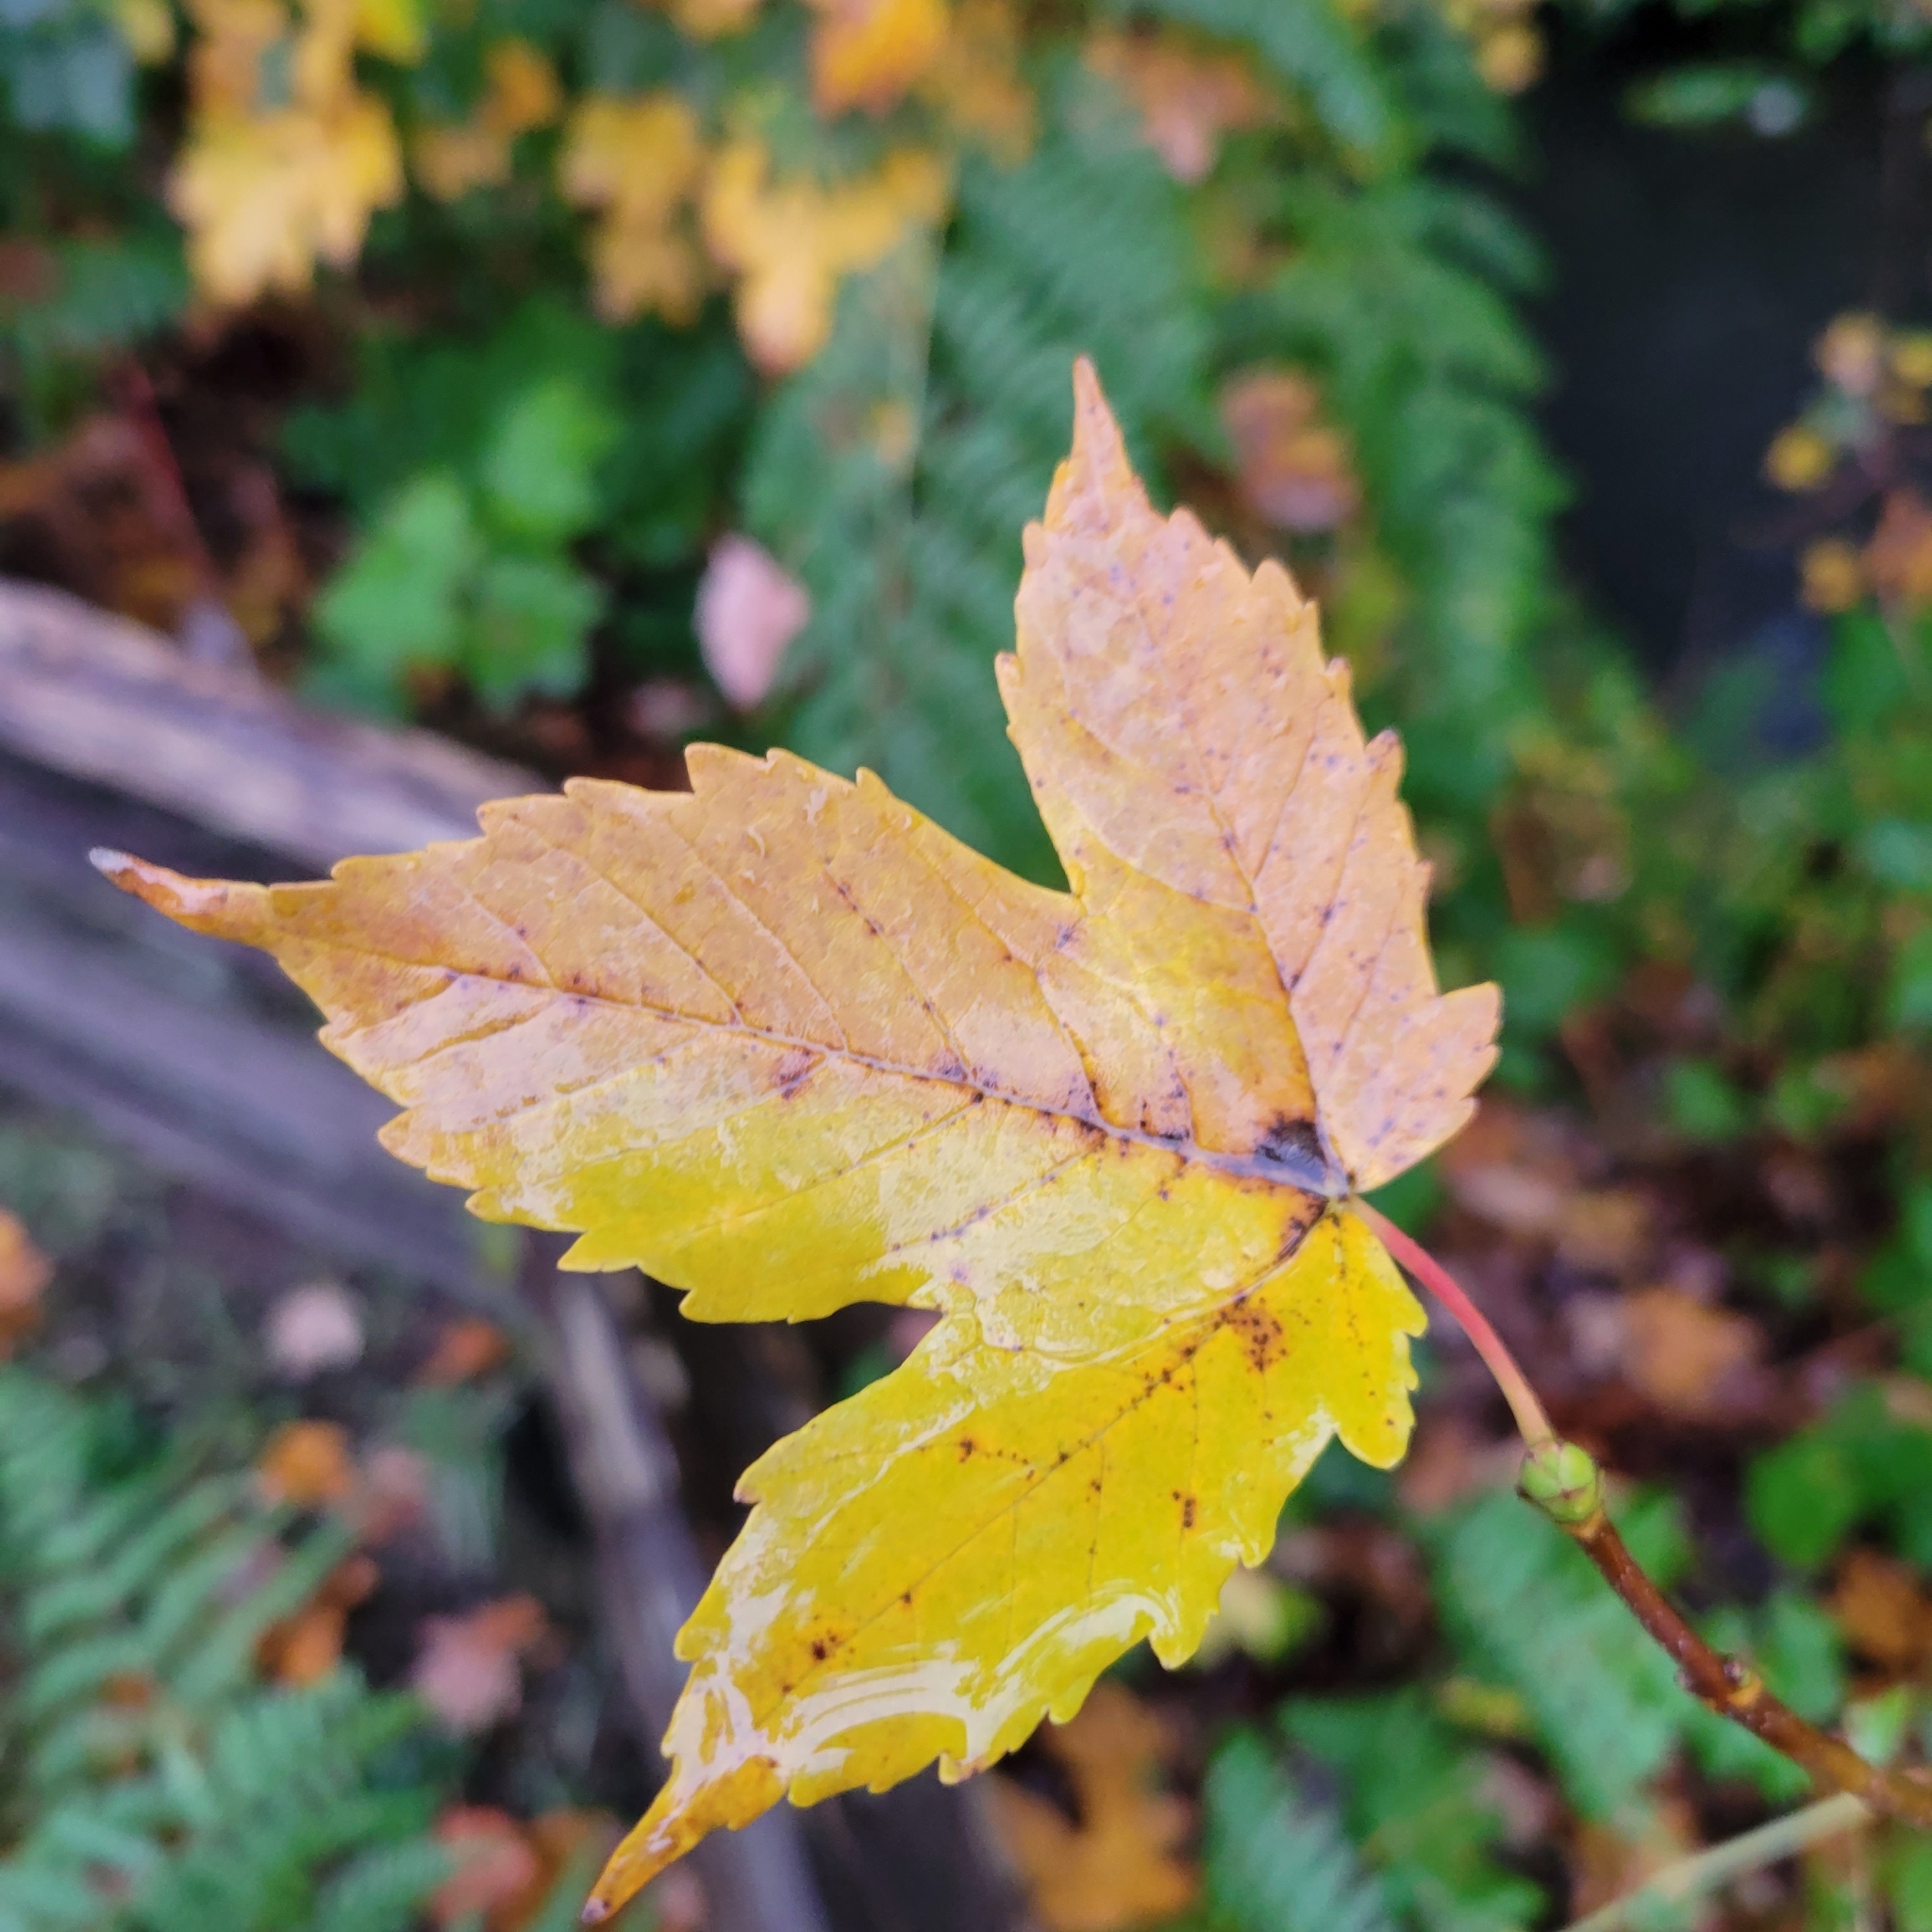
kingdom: Plantae
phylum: Tracheophyta
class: Magnoliopsida
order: Sapindales
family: Sapindaceae
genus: Acer
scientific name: Acer pseudoplatanus
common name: Sycamore
